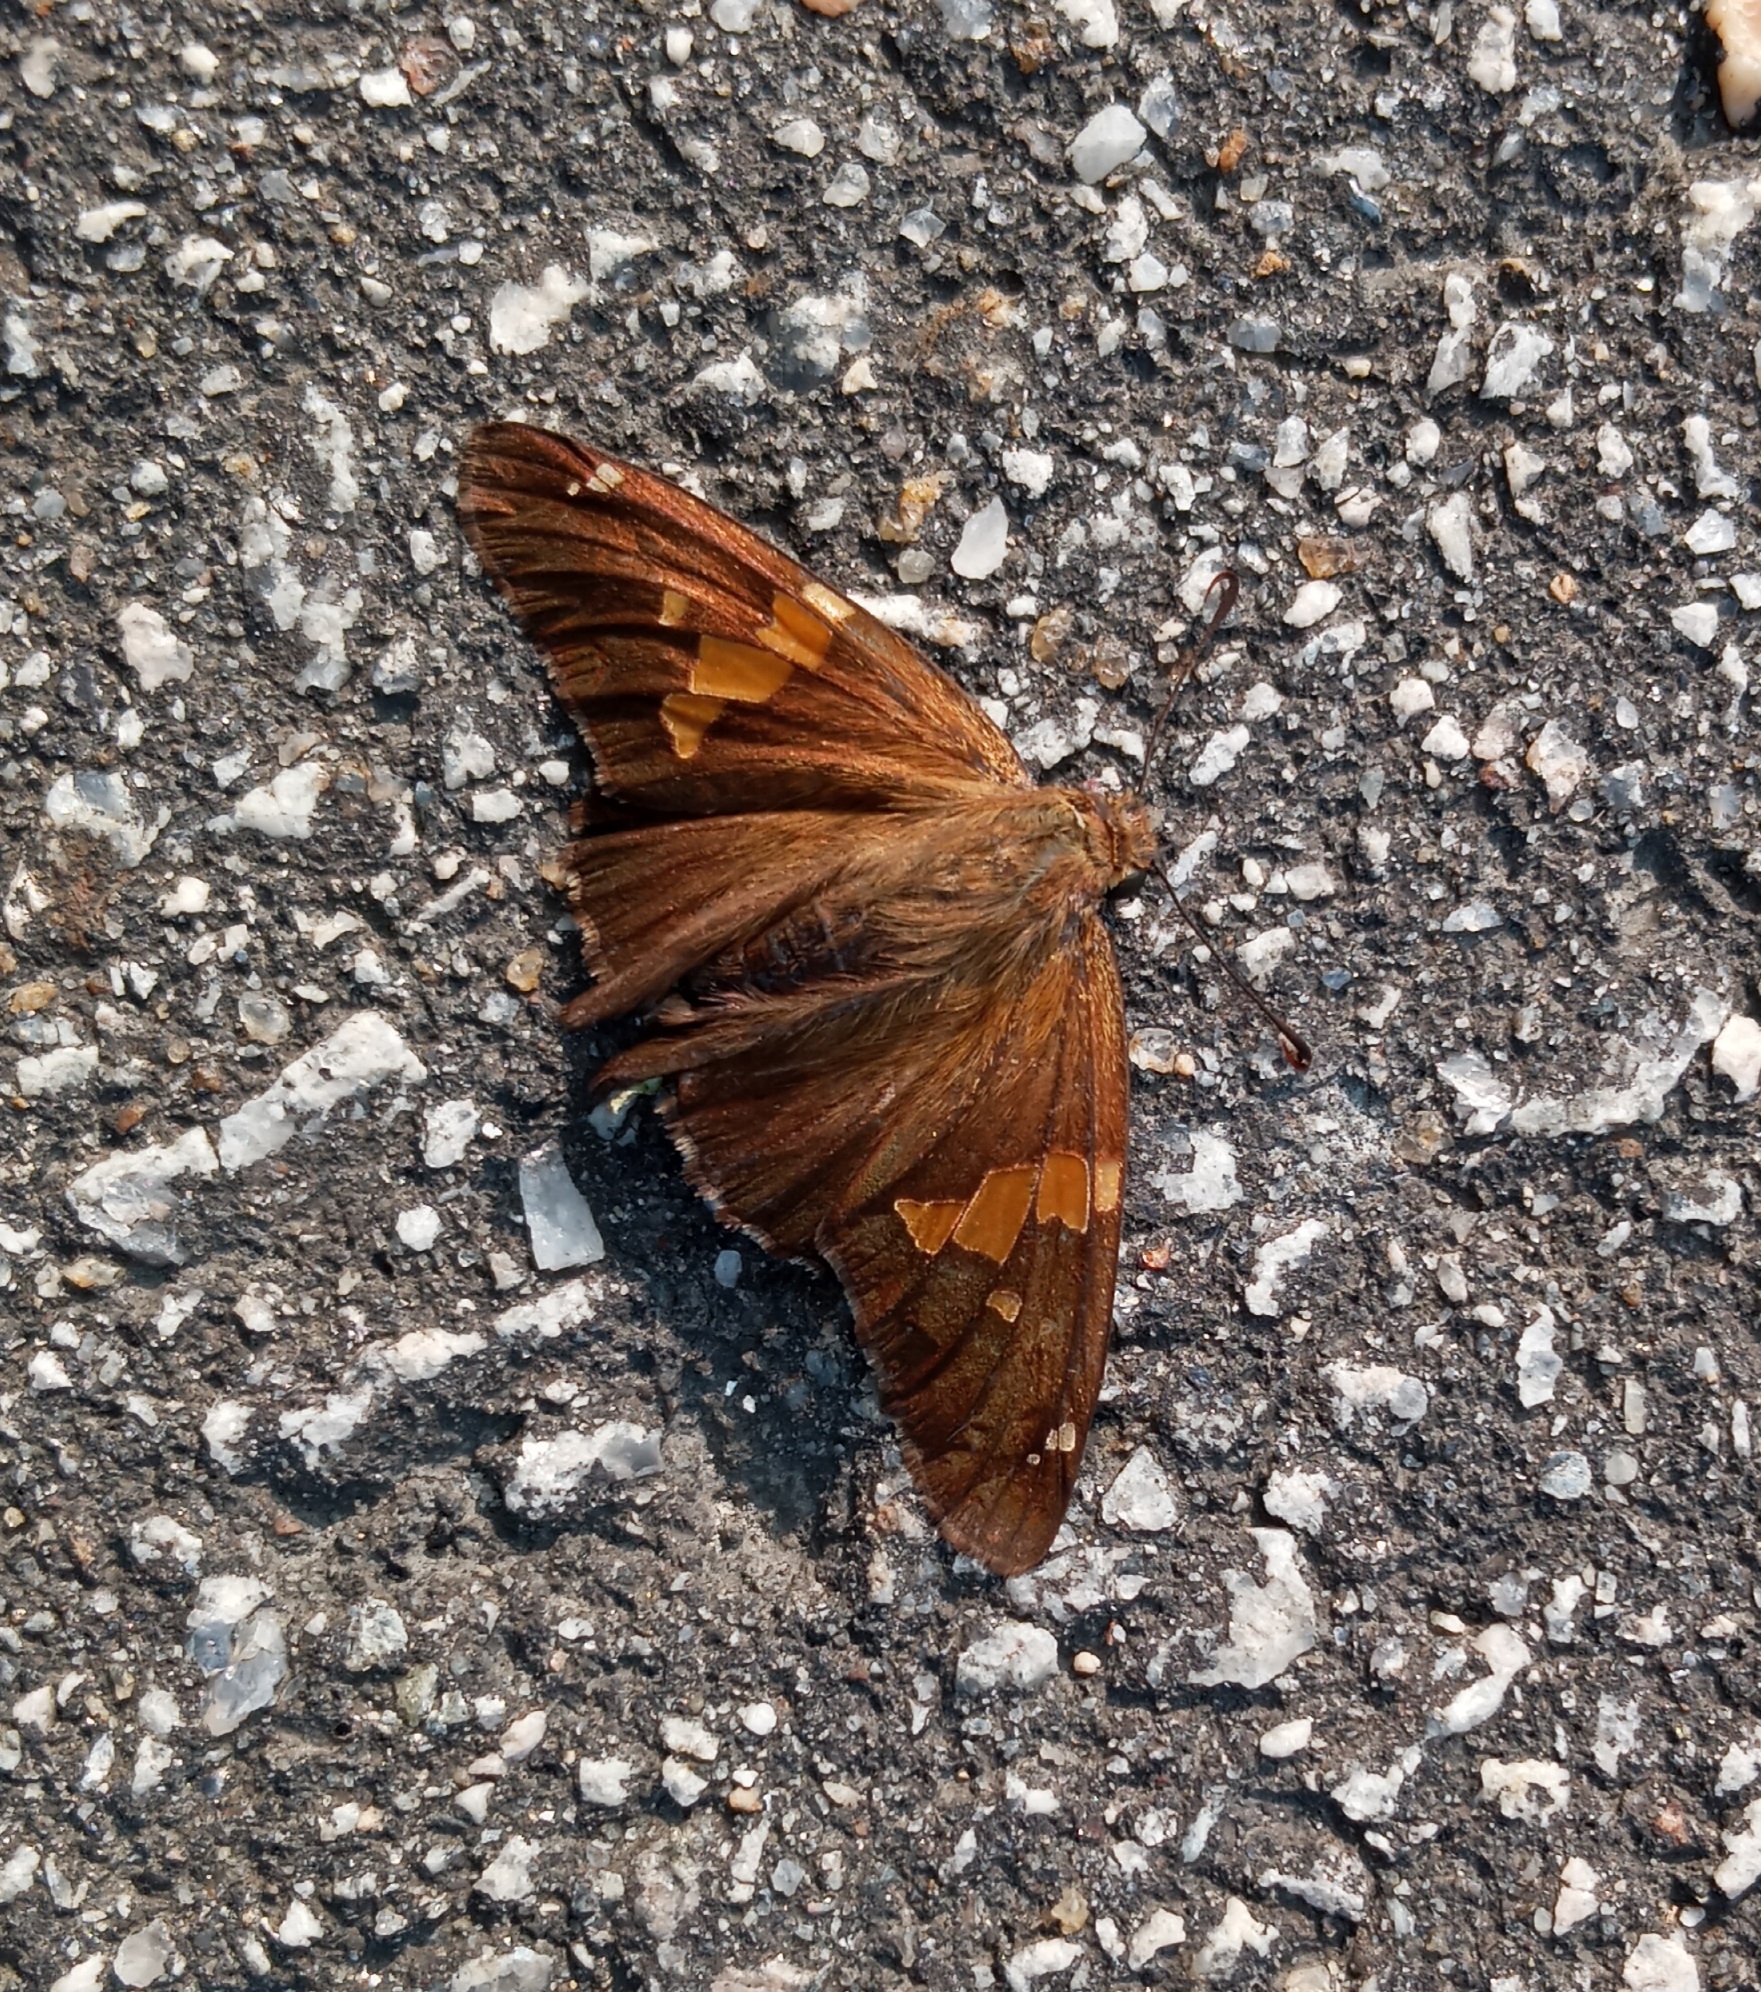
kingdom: Animalia
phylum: Arthropoda
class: Insecta
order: Lepidoptera
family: Hesperiidae
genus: Epargyreus
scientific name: Epargyreus clarus
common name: Silver-spotted skipper
